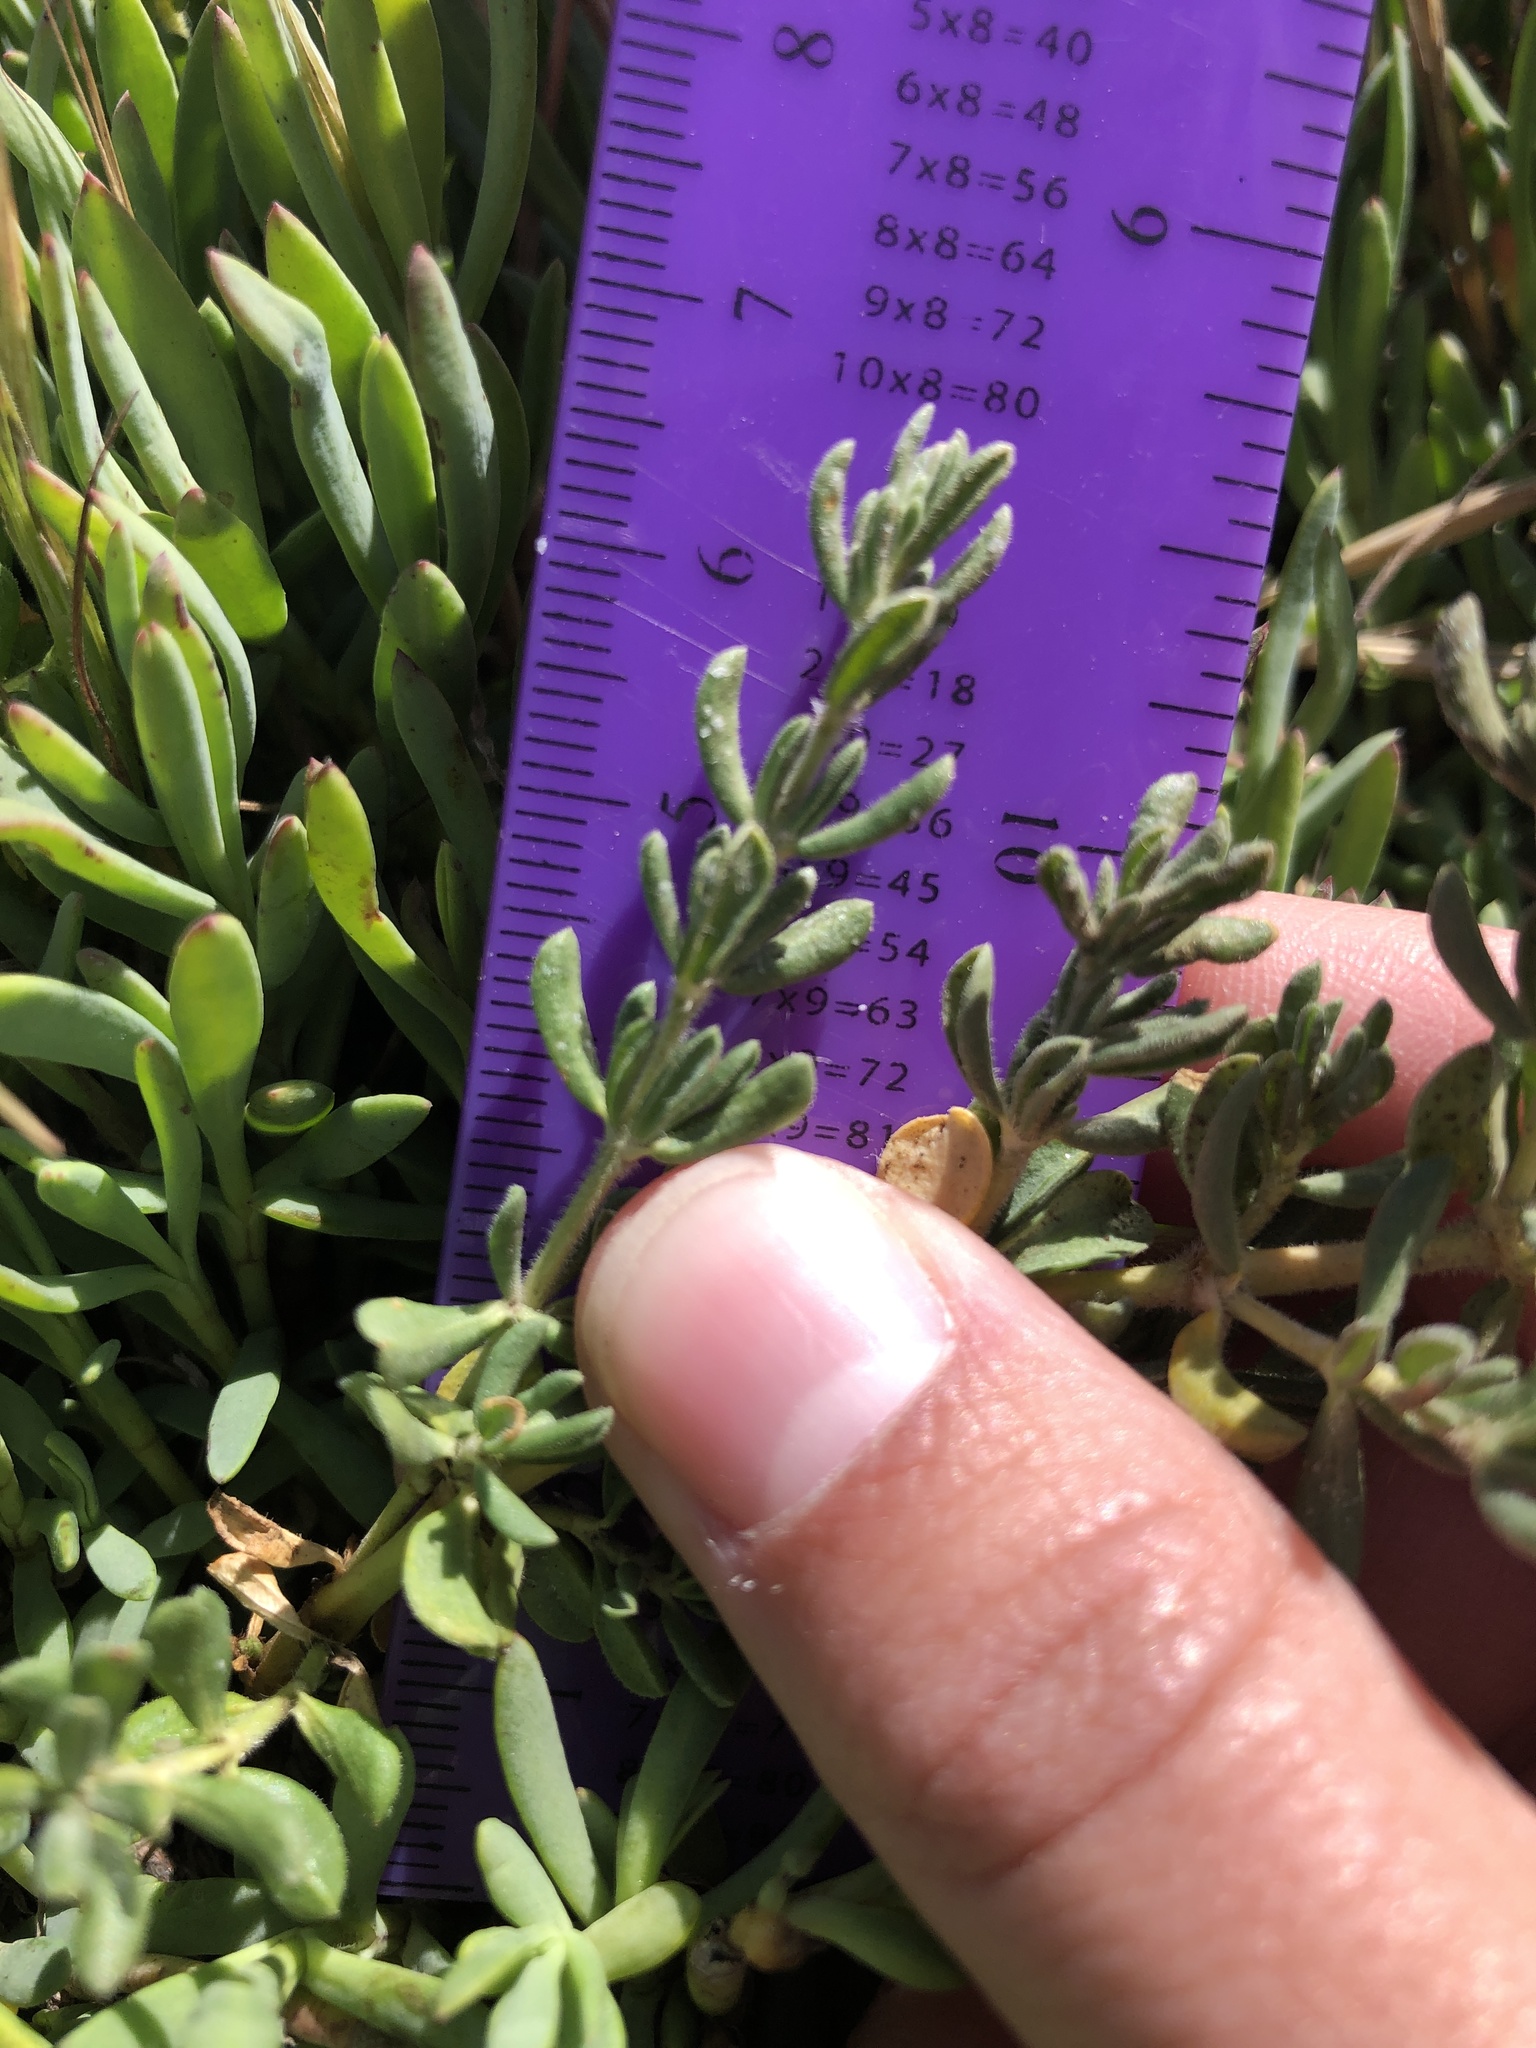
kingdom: Plantae
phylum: Tracheophyta
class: Magnoliopsida
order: Caryophyllales
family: Frankeniaceae
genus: Frankenia
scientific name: Frankenia salina
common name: Alkali seaheath
